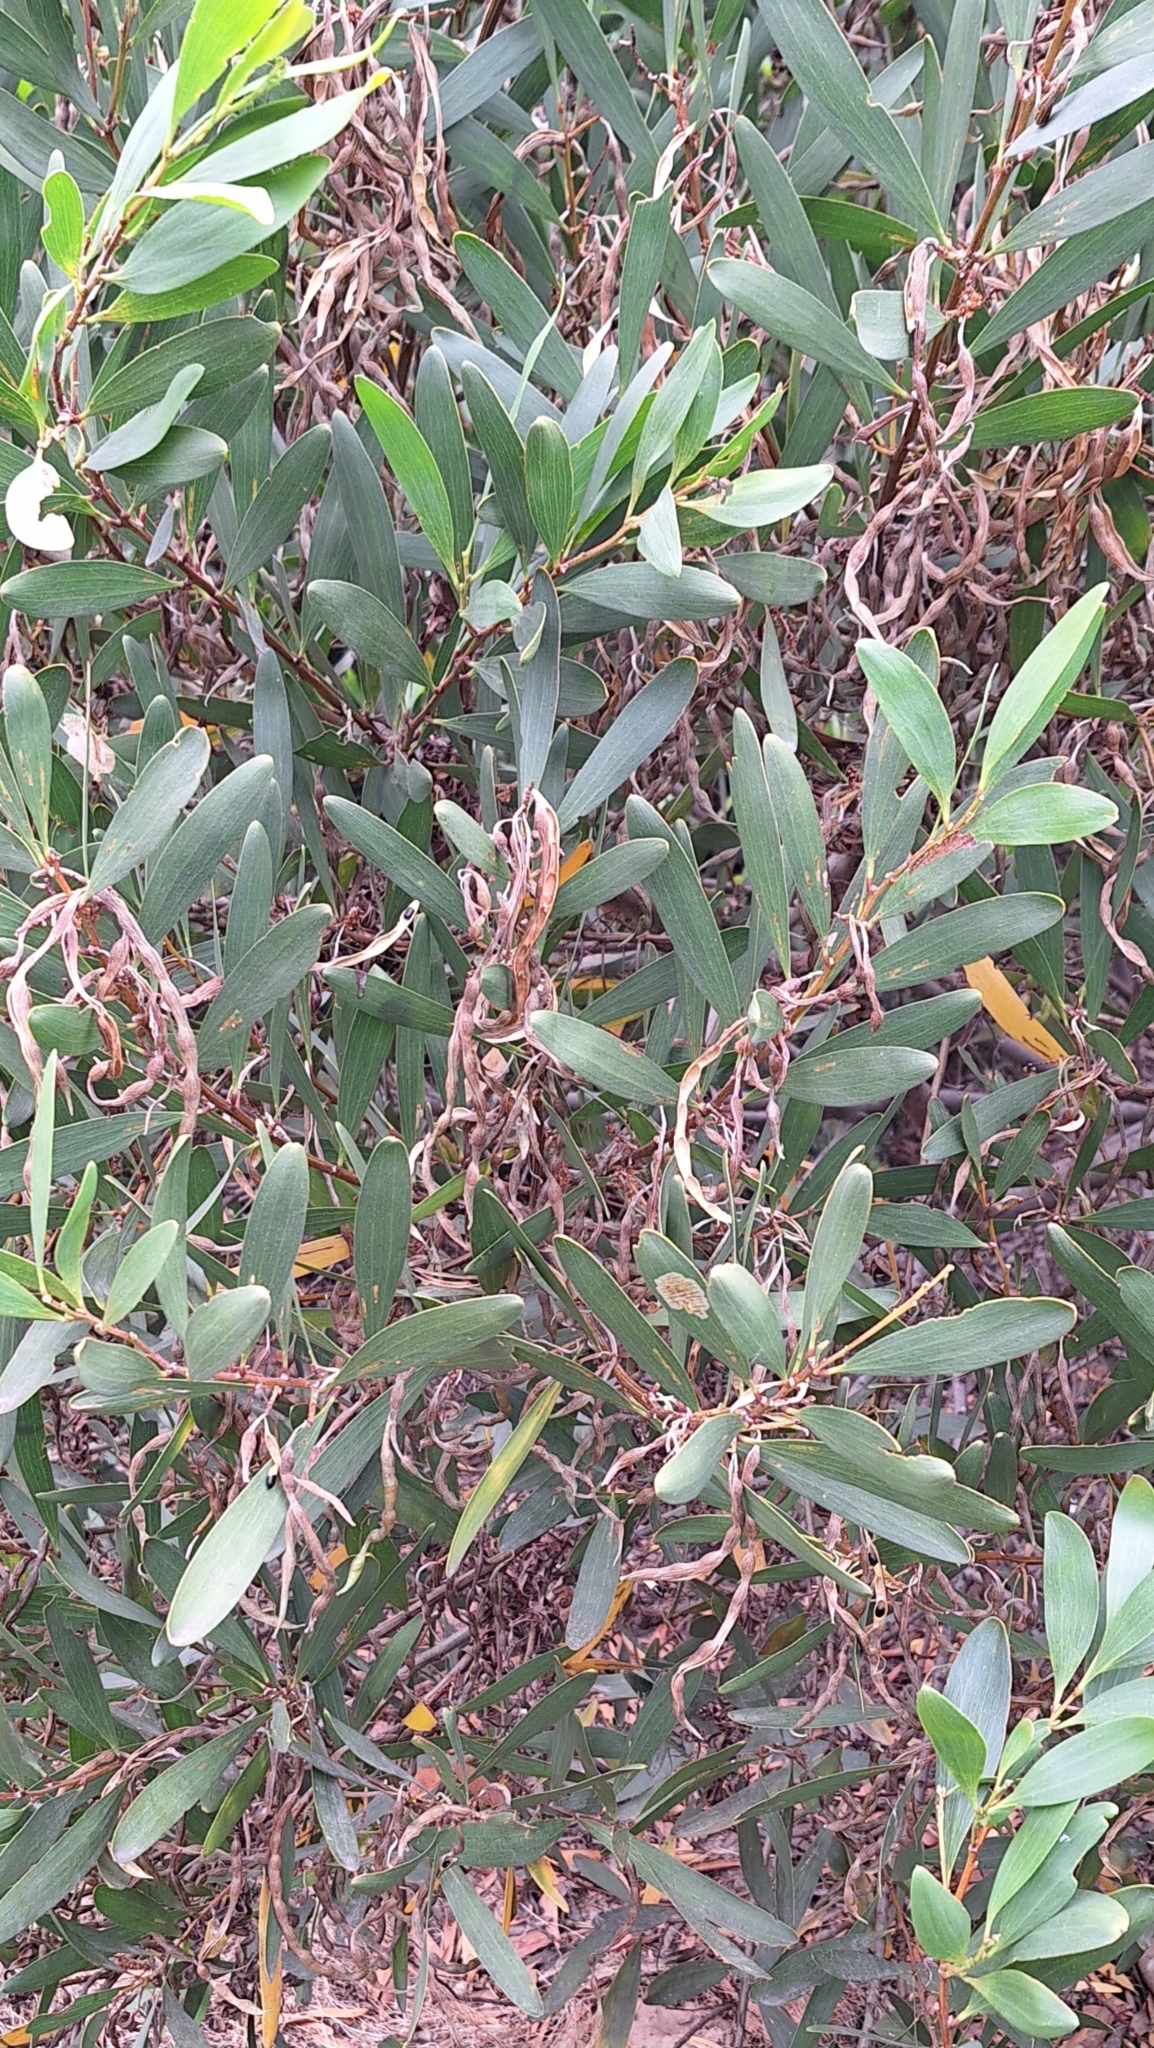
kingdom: Plantae
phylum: Tracheophyta
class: Magnoliopsida
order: Fabales
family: Fabaceae
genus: Acacia
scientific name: Acacia longifolia
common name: Sydney golden wattle
